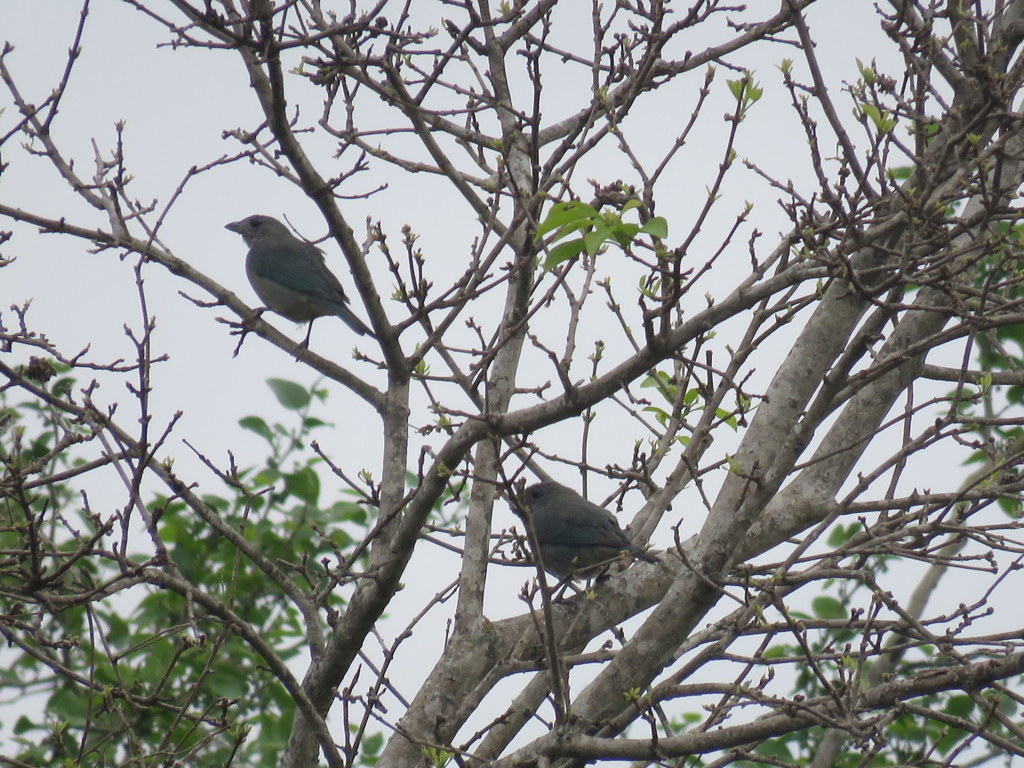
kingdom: Animalia
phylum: Chordata
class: Aves
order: Passeriformes
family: Thraupidae
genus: Thraupis
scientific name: Thraupis sayaca
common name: Sayaca tanager
